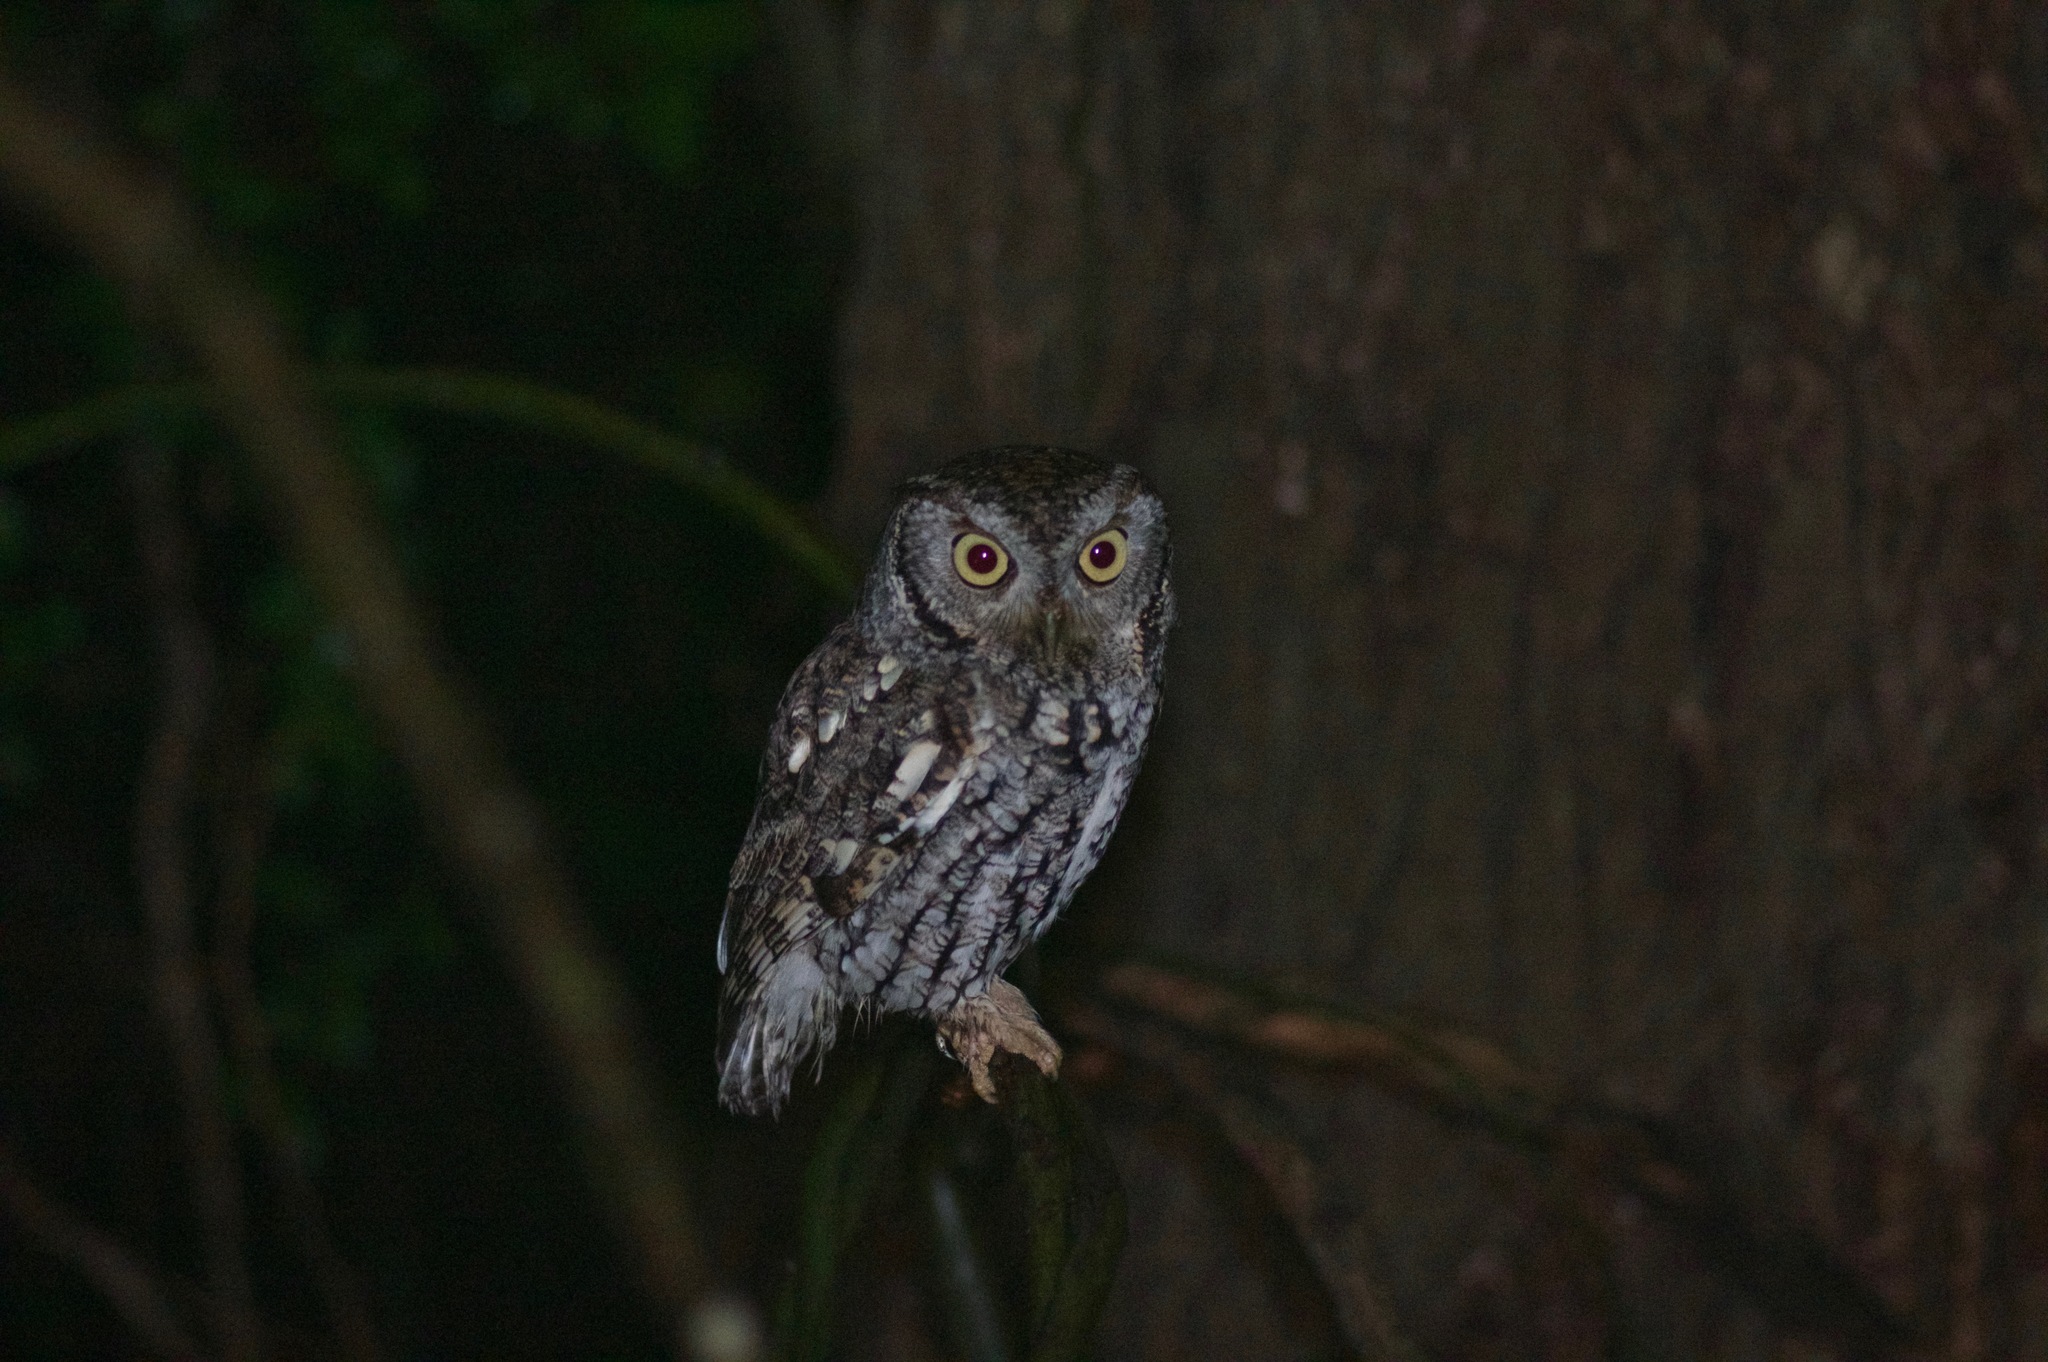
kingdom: Animalia
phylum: Chordata
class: Aves
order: Strigiformes
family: Strigidae
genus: Megascops
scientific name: Megascops asio
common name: Eastern screech-owl
